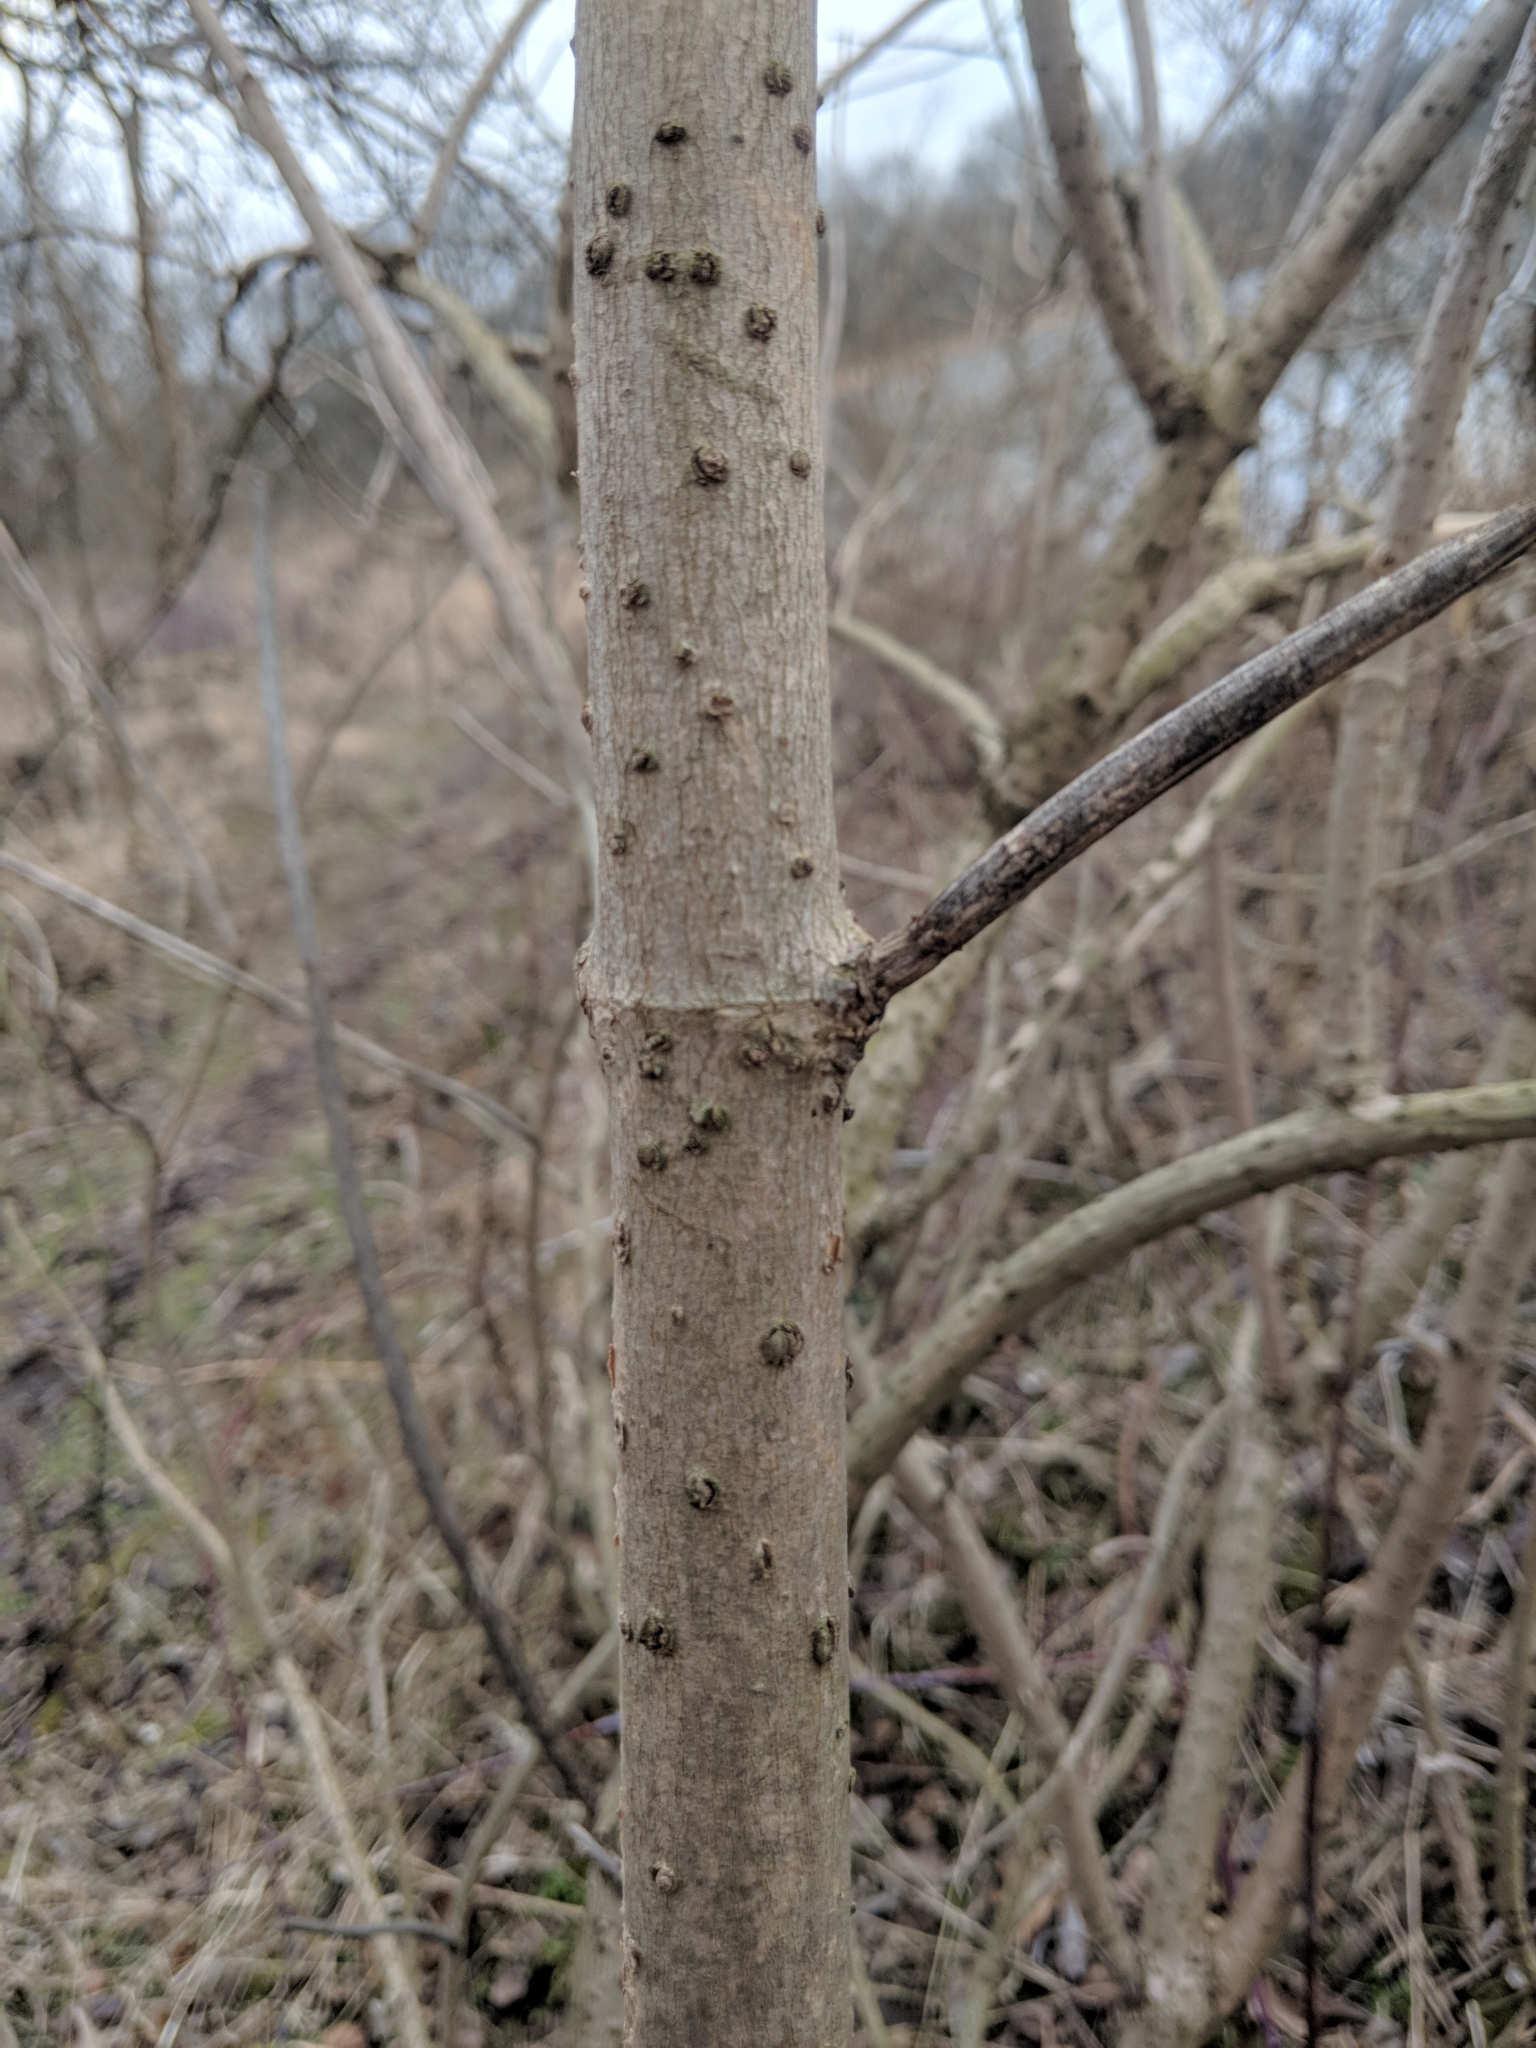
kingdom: Plantae
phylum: Tracheophyta
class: Magnoliopsida
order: Dipsacales
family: Viburnaceae
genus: Sambucus
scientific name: Sambucus canadensis
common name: American elder
